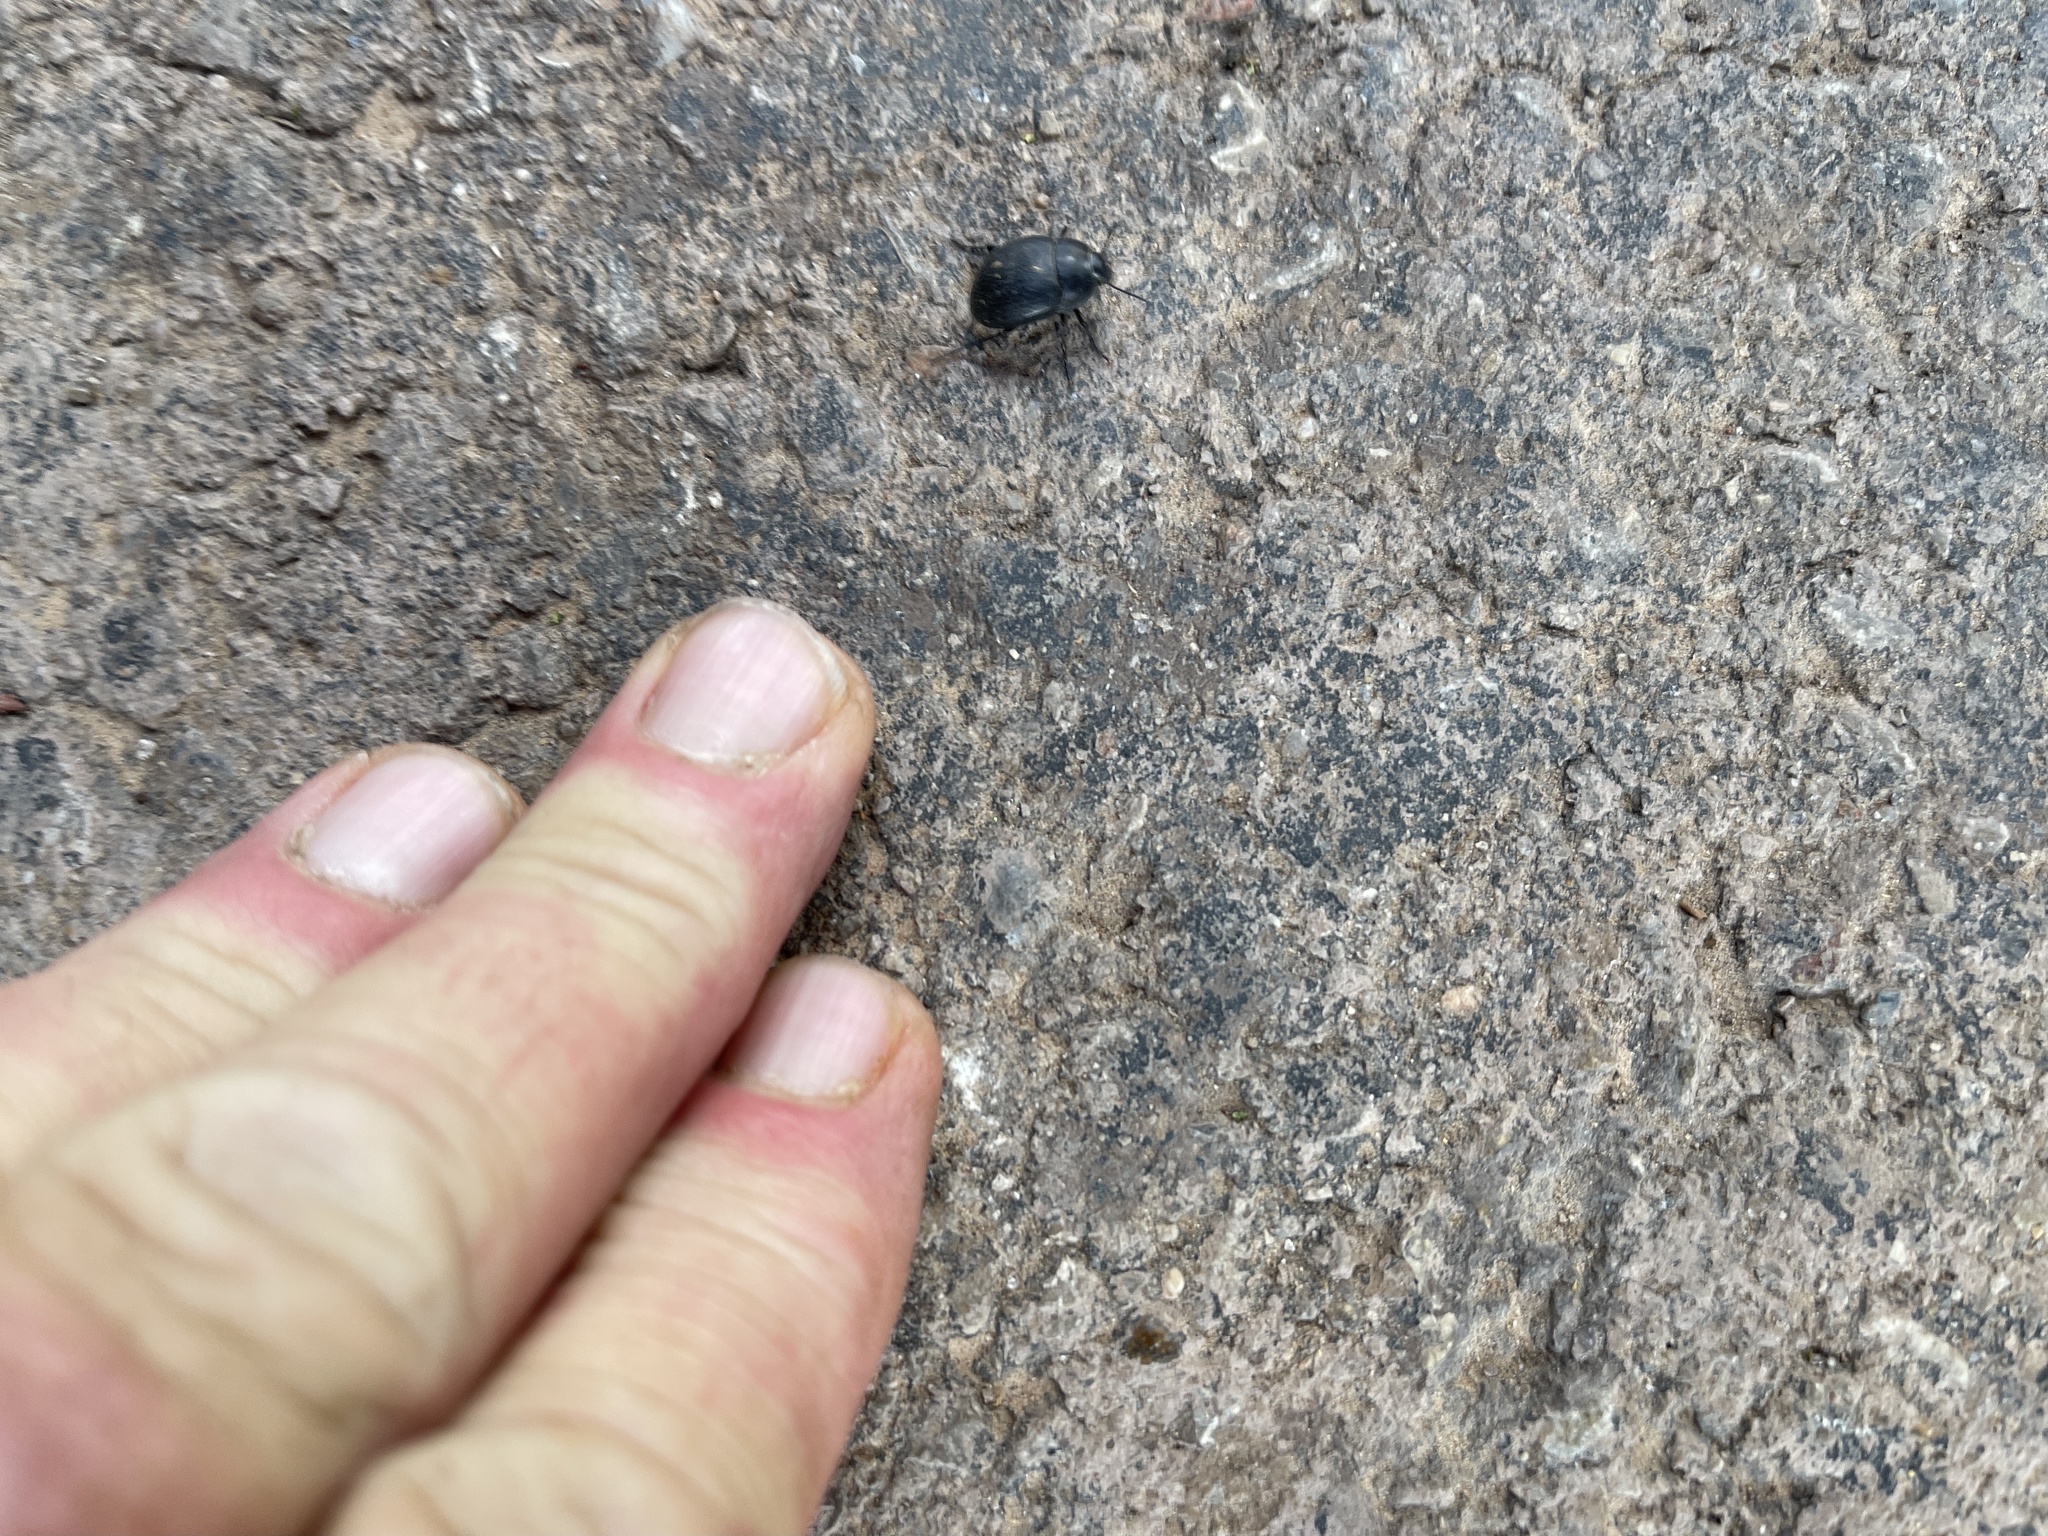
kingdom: Animalia
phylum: Arthropoda
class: Insecta
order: Coleoptera
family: Tenebrionidae
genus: Eusattus
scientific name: Eusattus reticulatus
